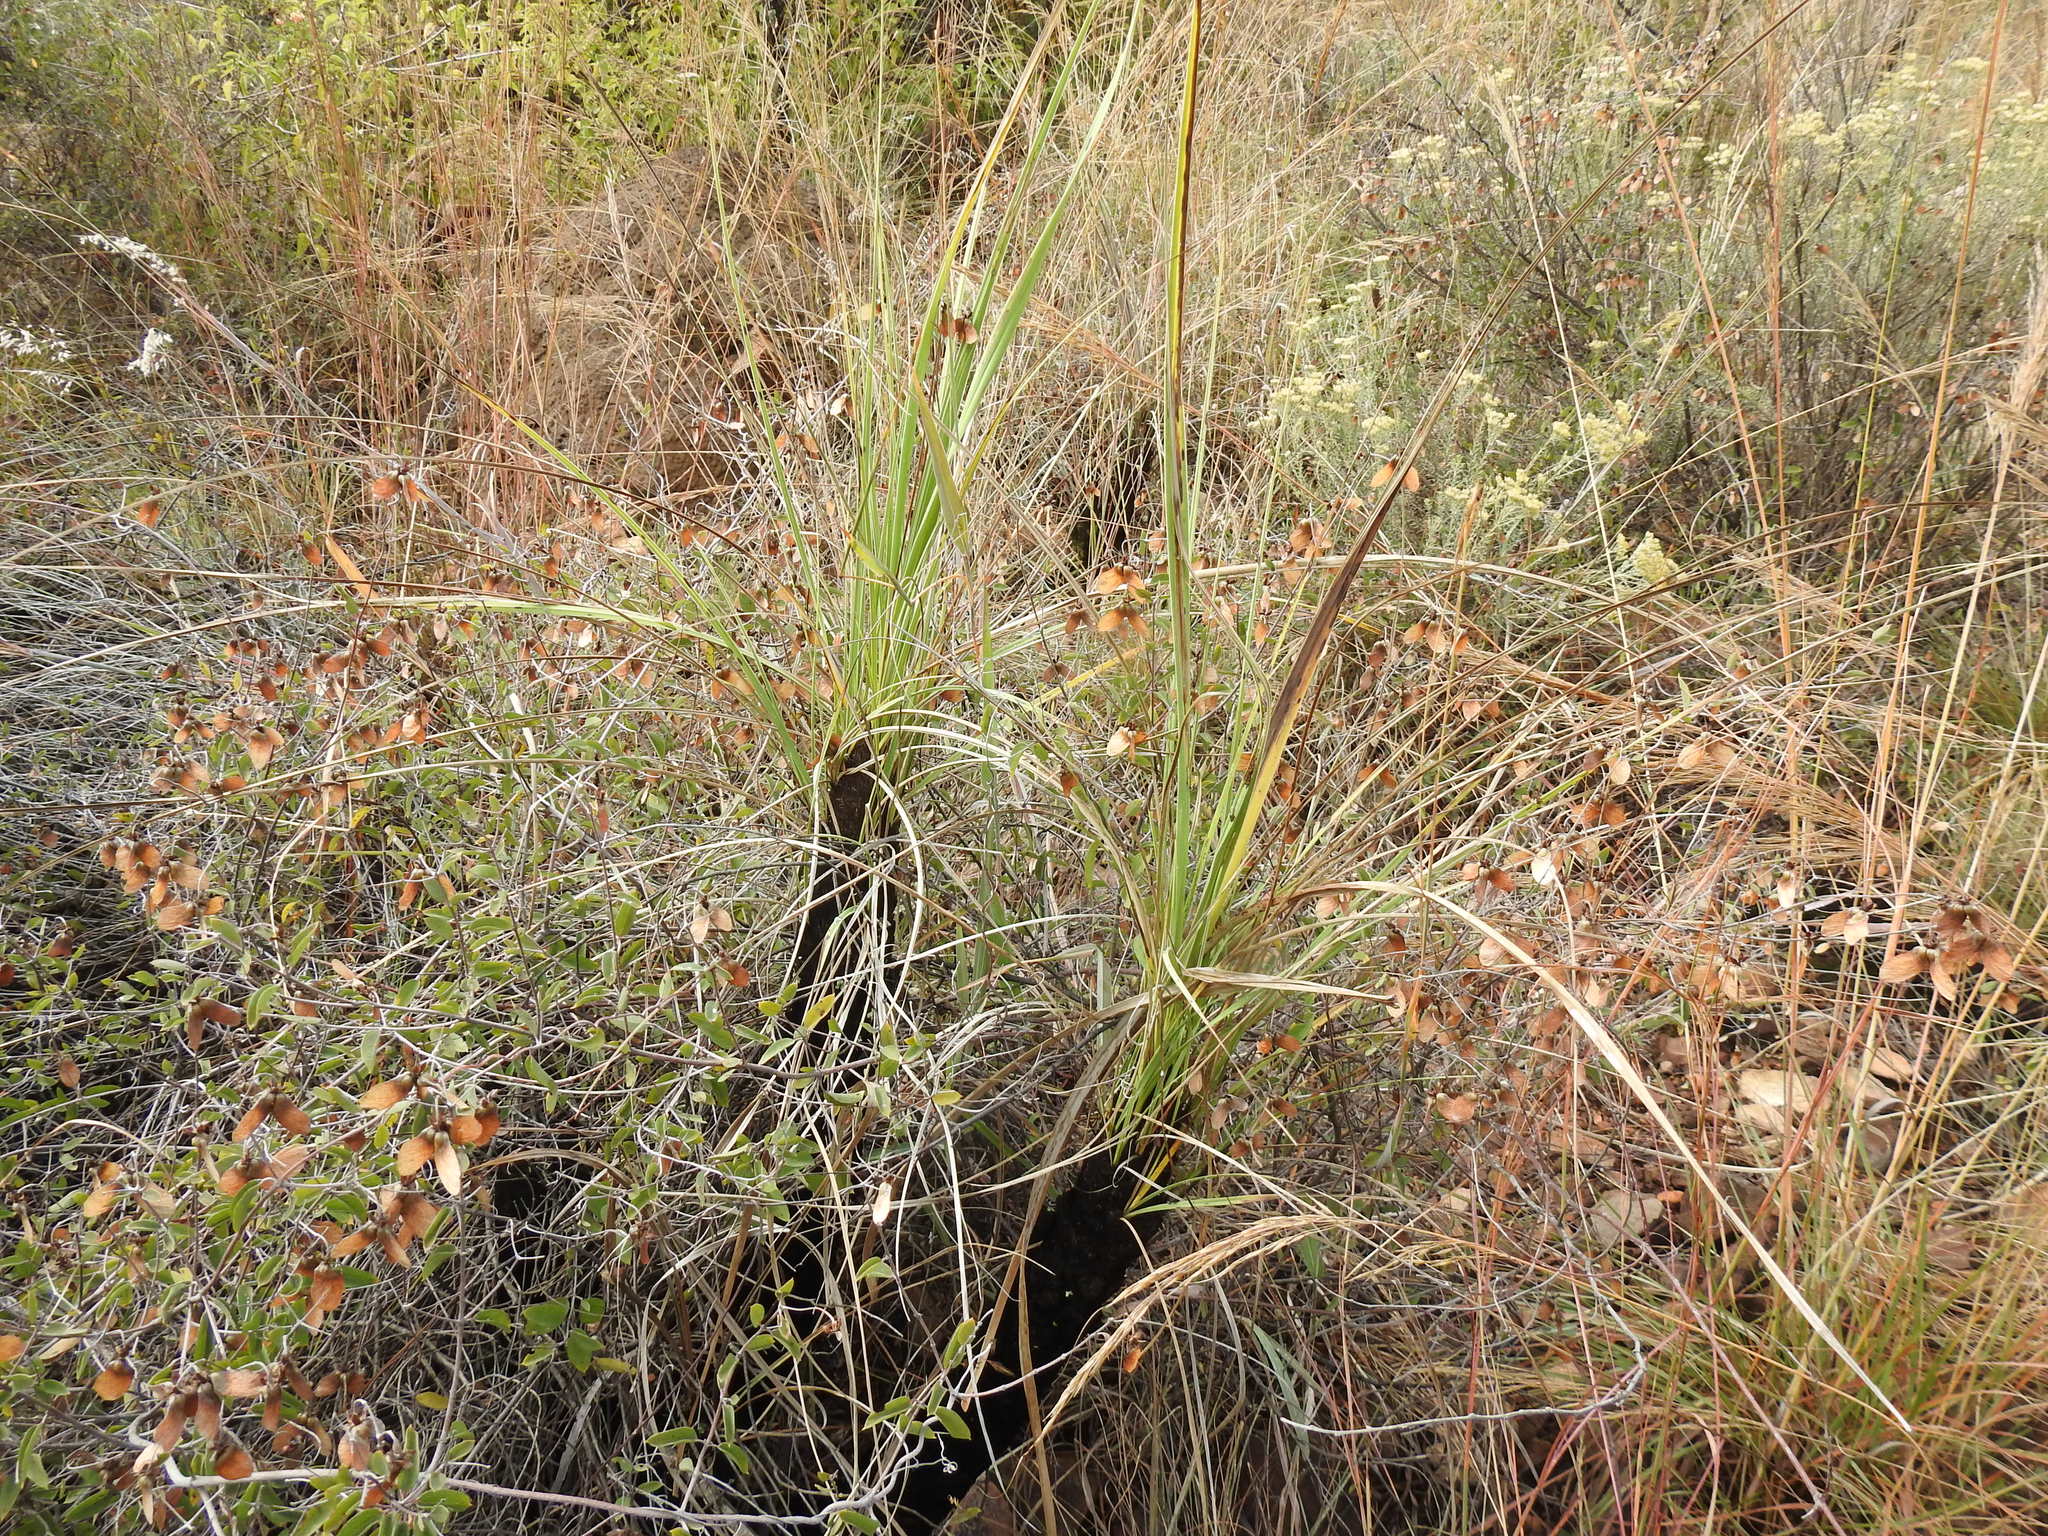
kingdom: Plantae
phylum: Tracheophyta
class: Liliopsida
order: Pandanales
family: Velloziaceae
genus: Xerophyta
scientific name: Xerophyta retinervis
